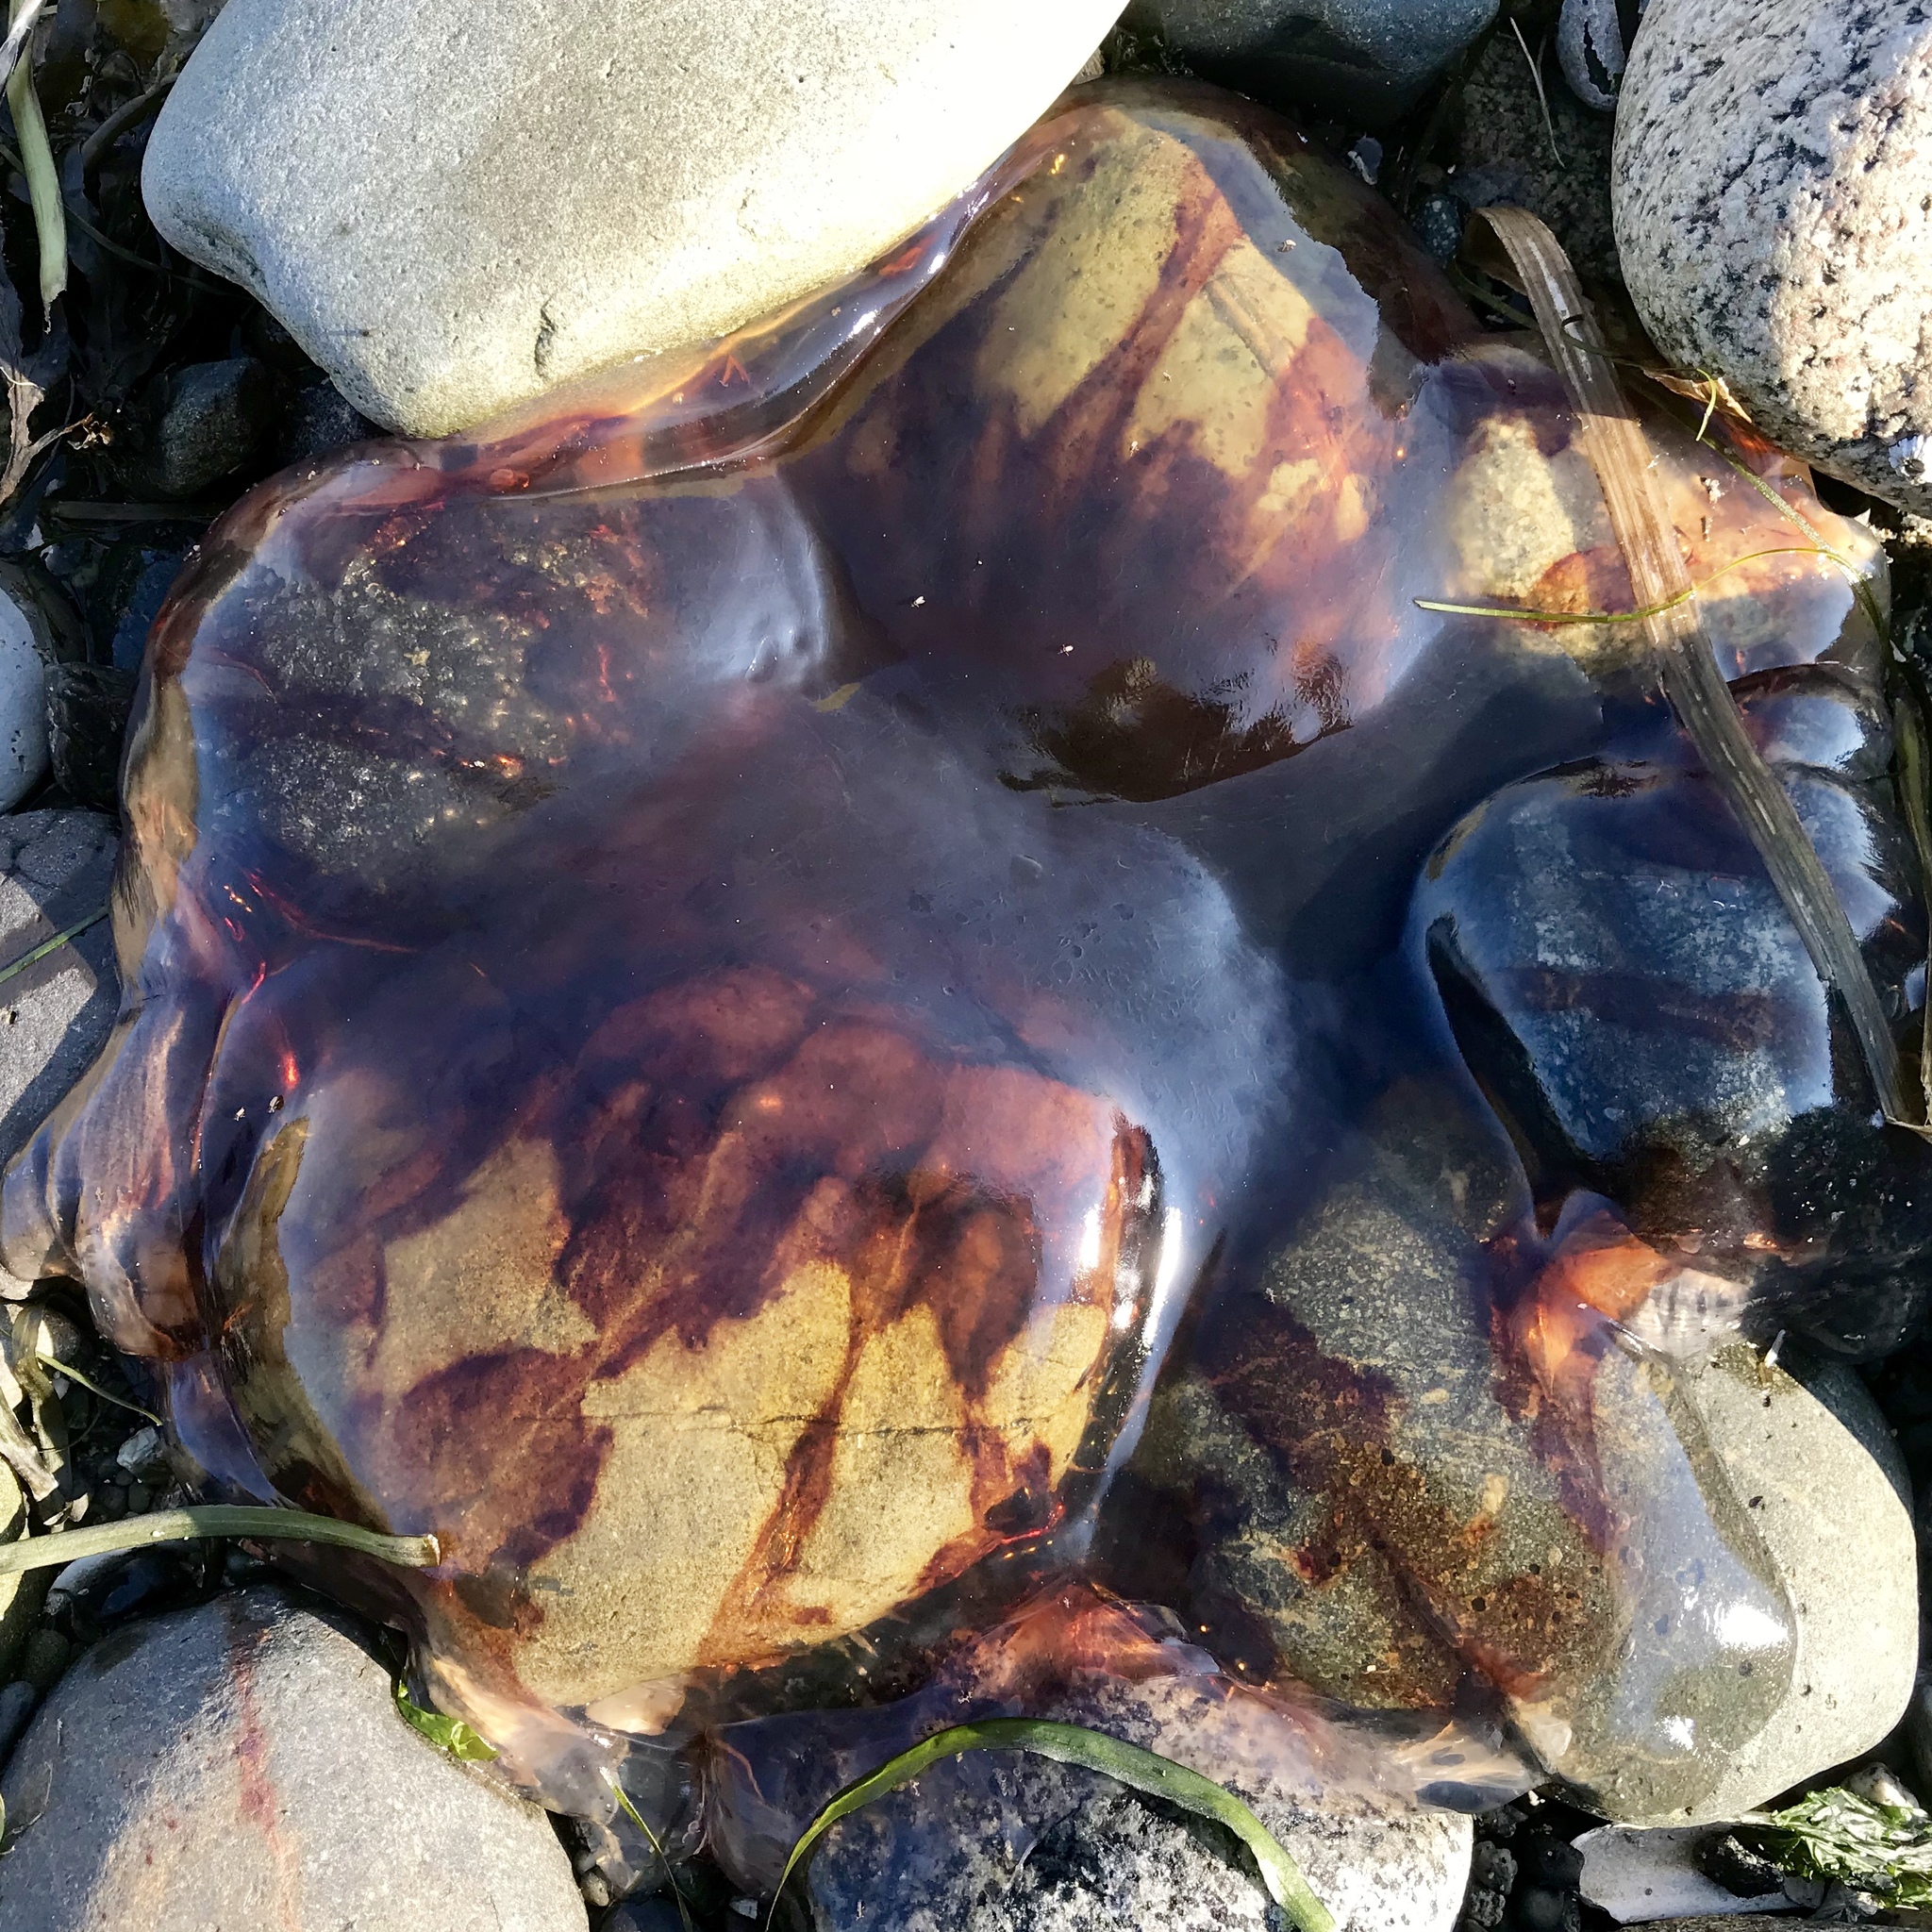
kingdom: Animalia
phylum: Cnidaria
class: Scyphozoa
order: Semaeostomeae
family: Cyaneidae
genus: Cyanea
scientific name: Cyanea ferruginea
